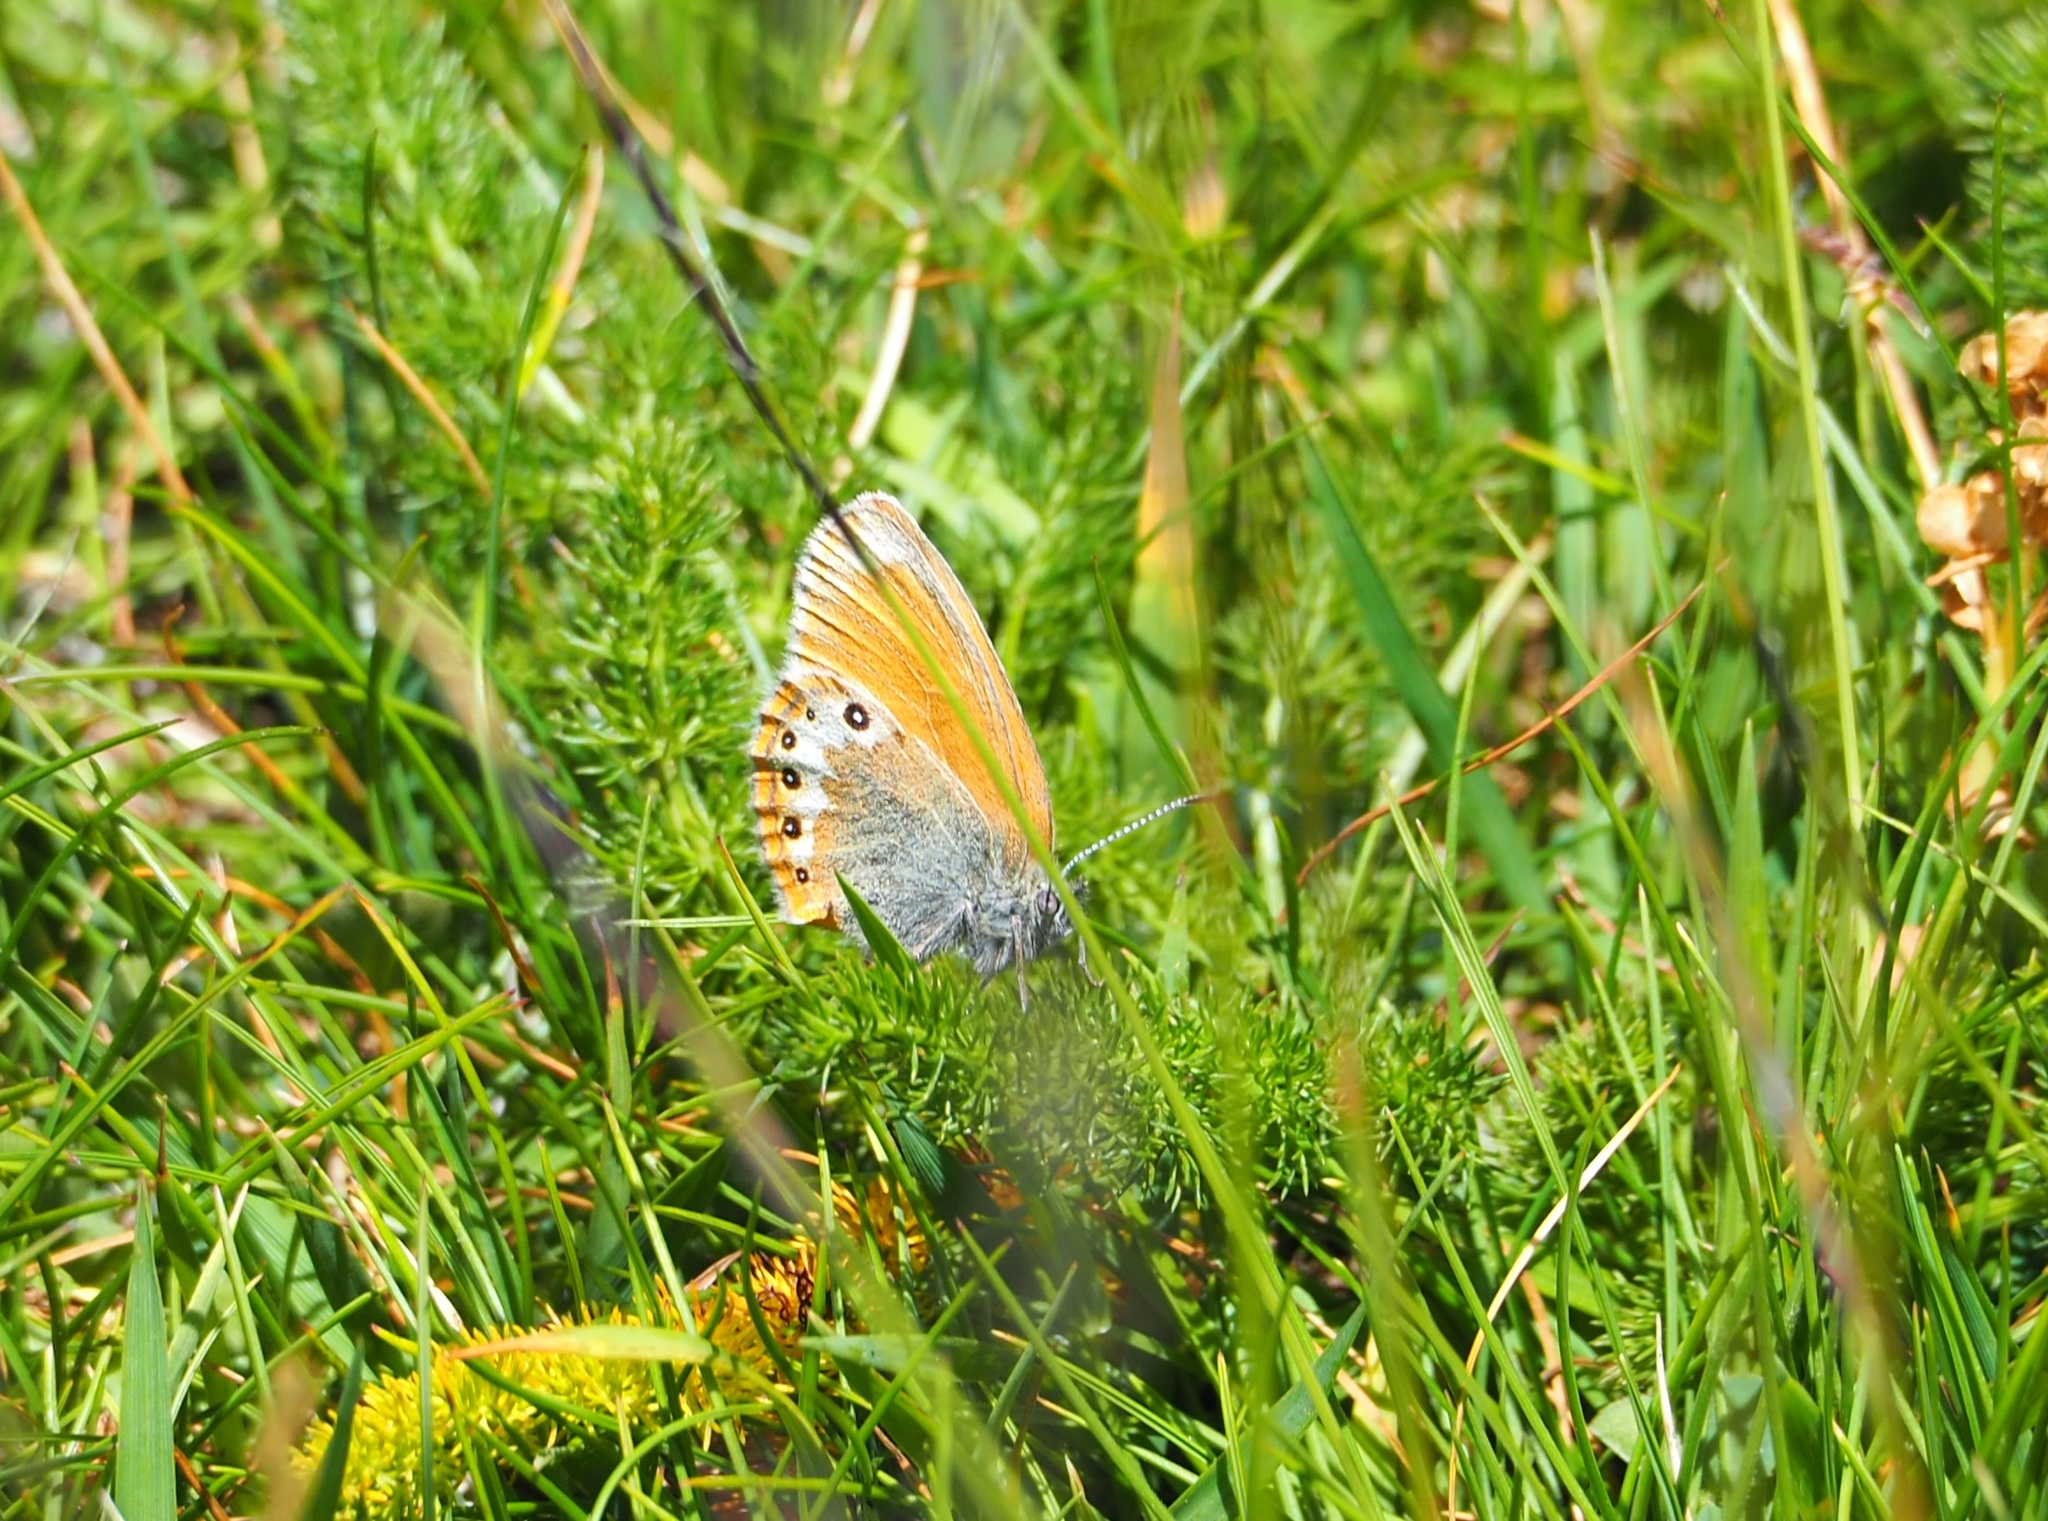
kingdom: Animalia
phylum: Arthropoda
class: Insecta
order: Lepidoptera
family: Nymphalidae
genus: Coenonympha
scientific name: Coenonympha
